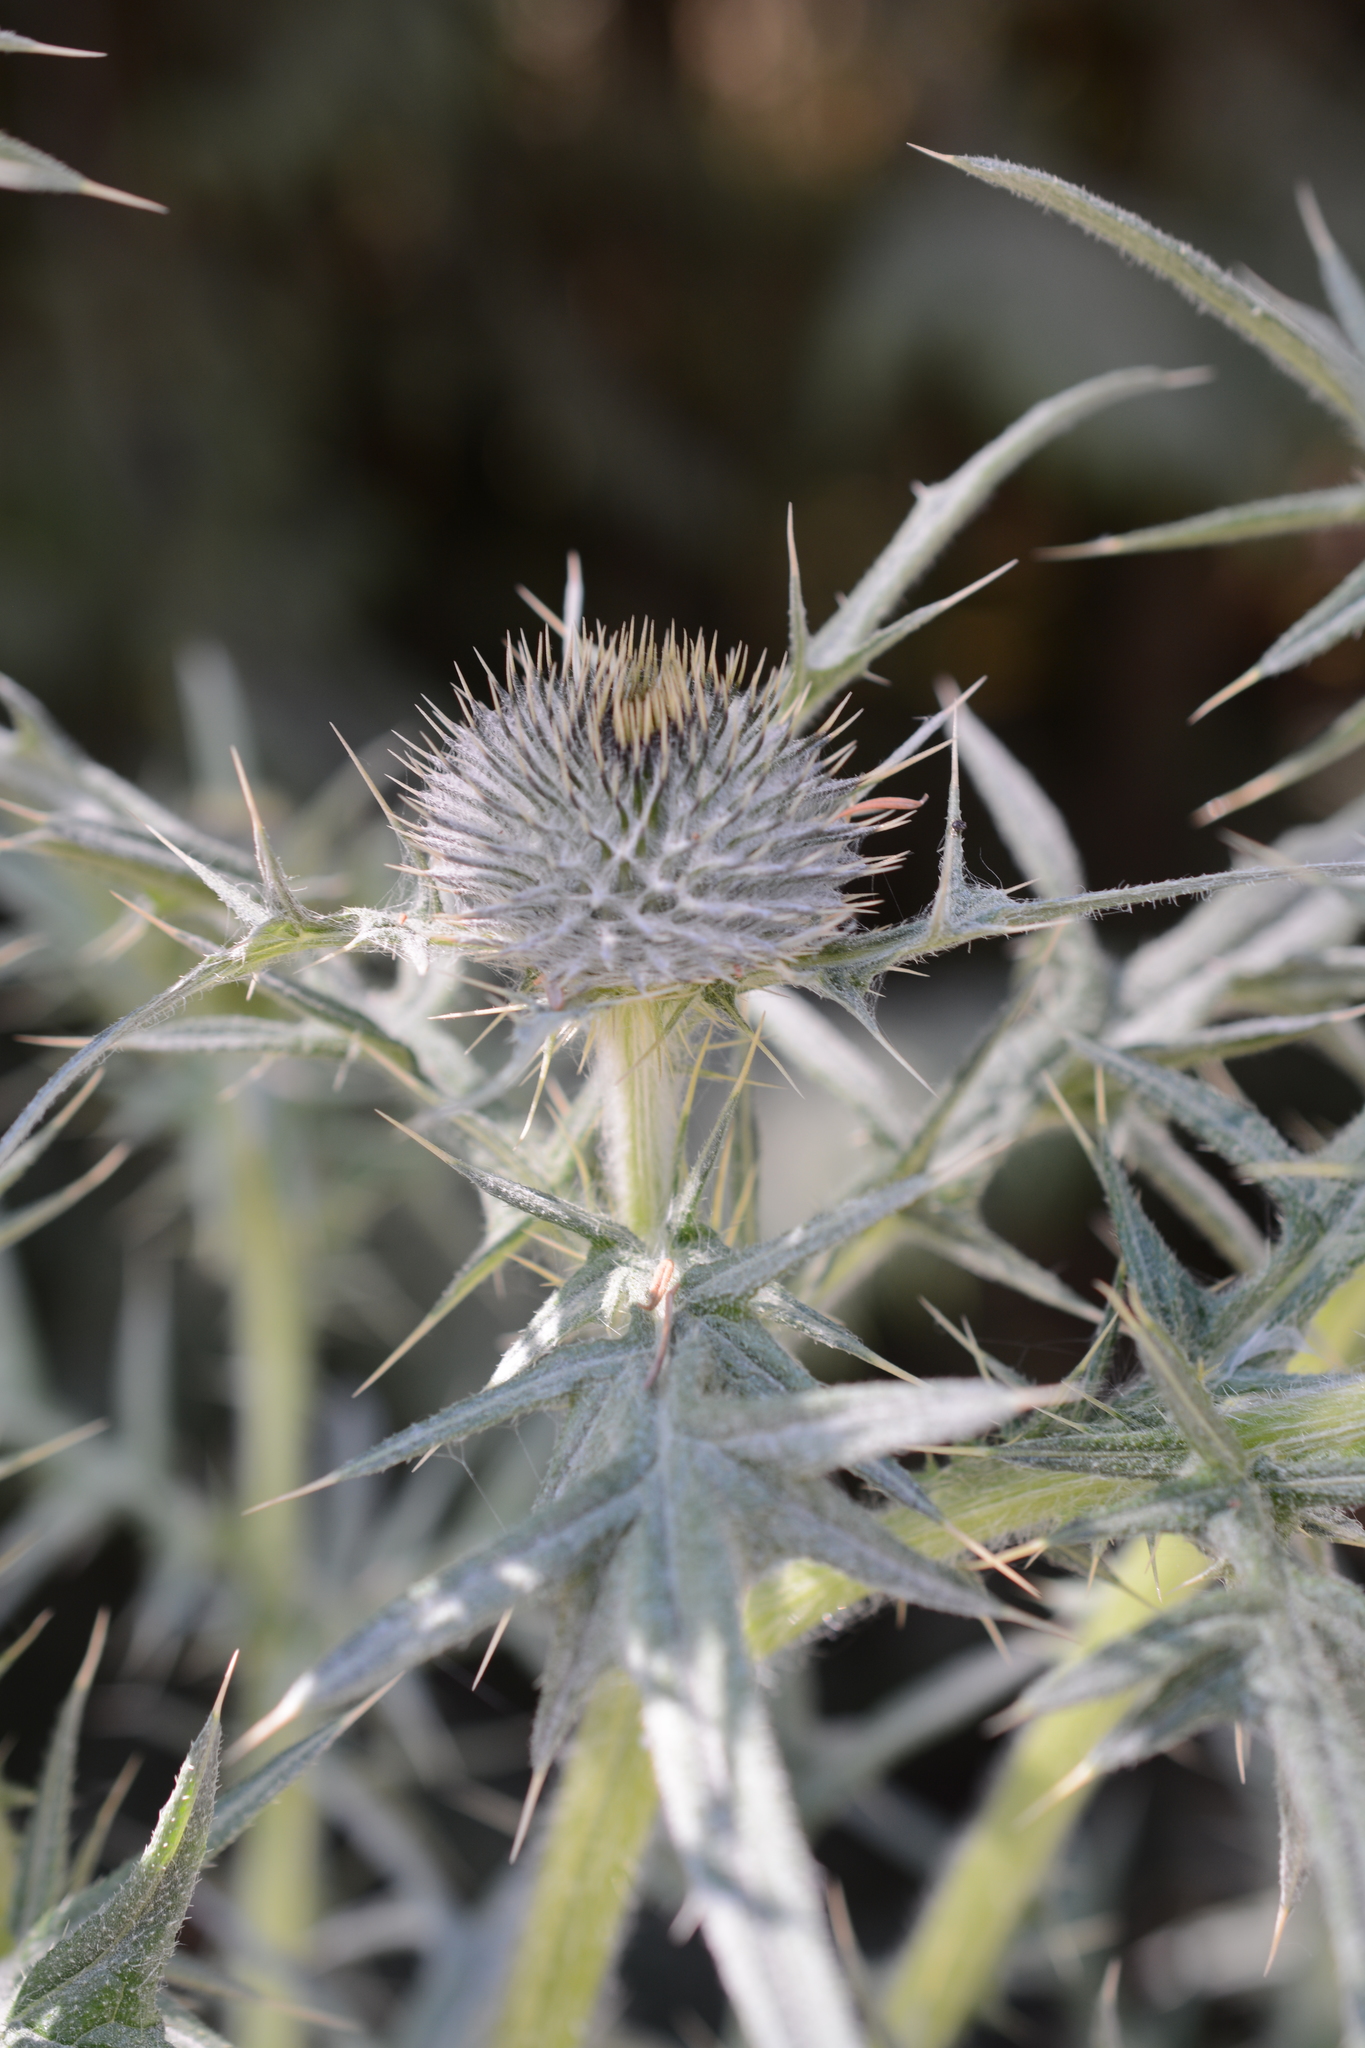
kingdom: Plantae
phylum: Tracheophyta
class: Magnoliopsida
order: Asterales
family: Asteraceae
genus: Cirsium
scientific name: Cirsium vulgare
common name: Bull thistle
